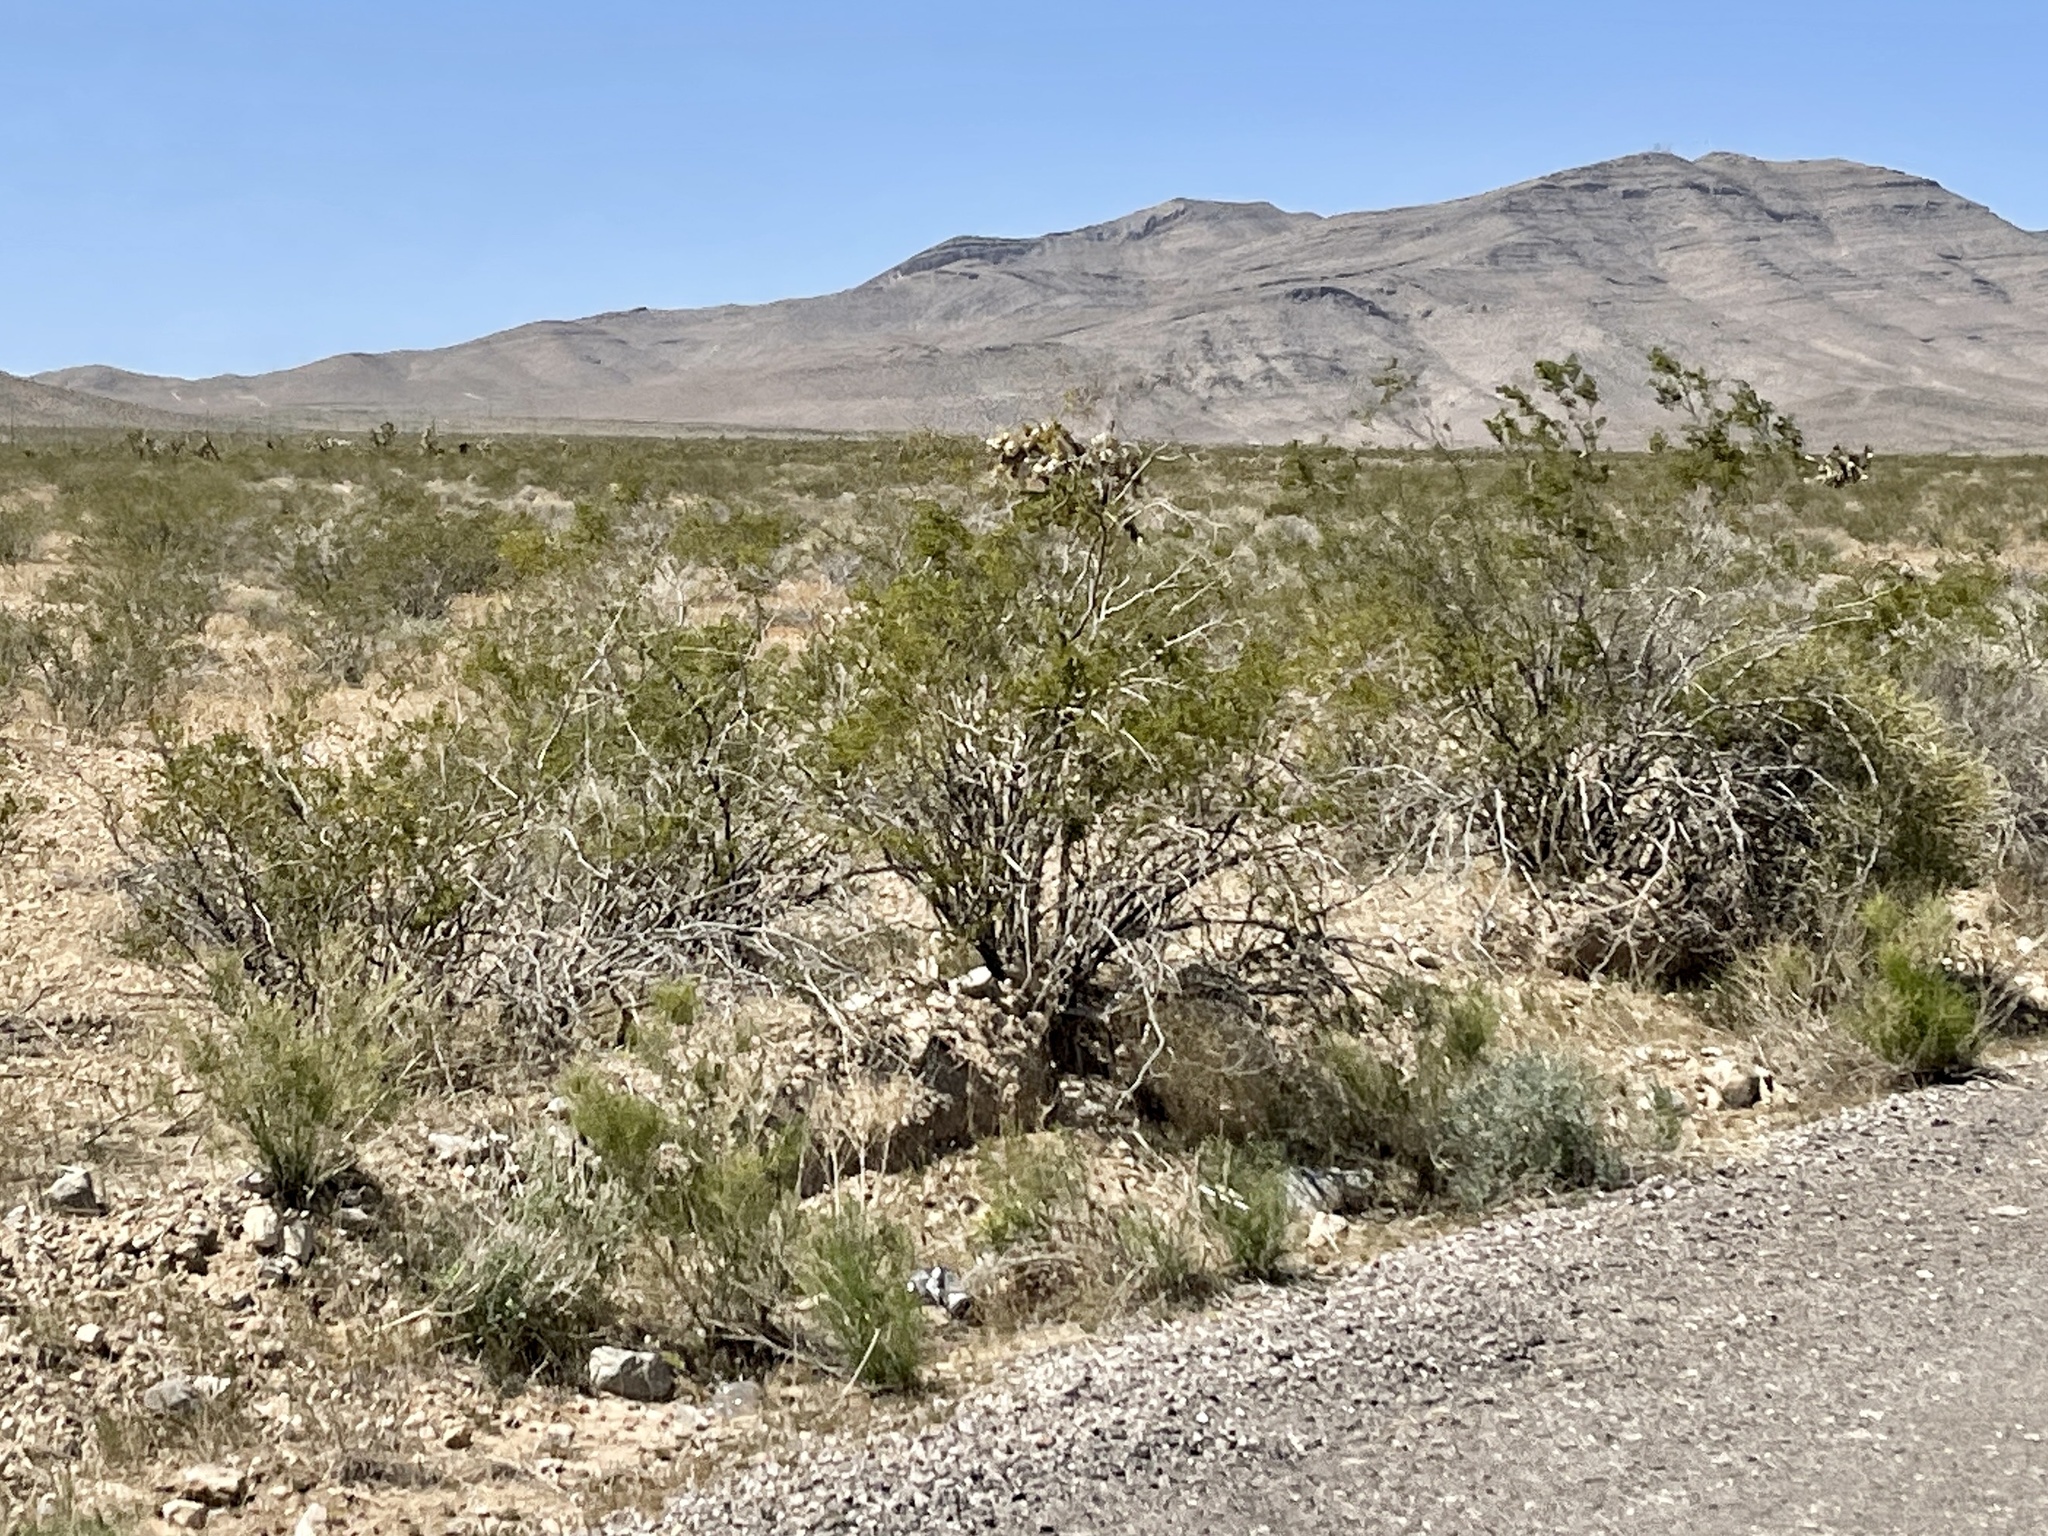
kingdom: Plantae
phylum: Tracheophyta
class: Magnoliopsida
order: Zygophyllales
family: Zygophyllaceae
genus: Larrea
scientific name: Larrea tridentata
